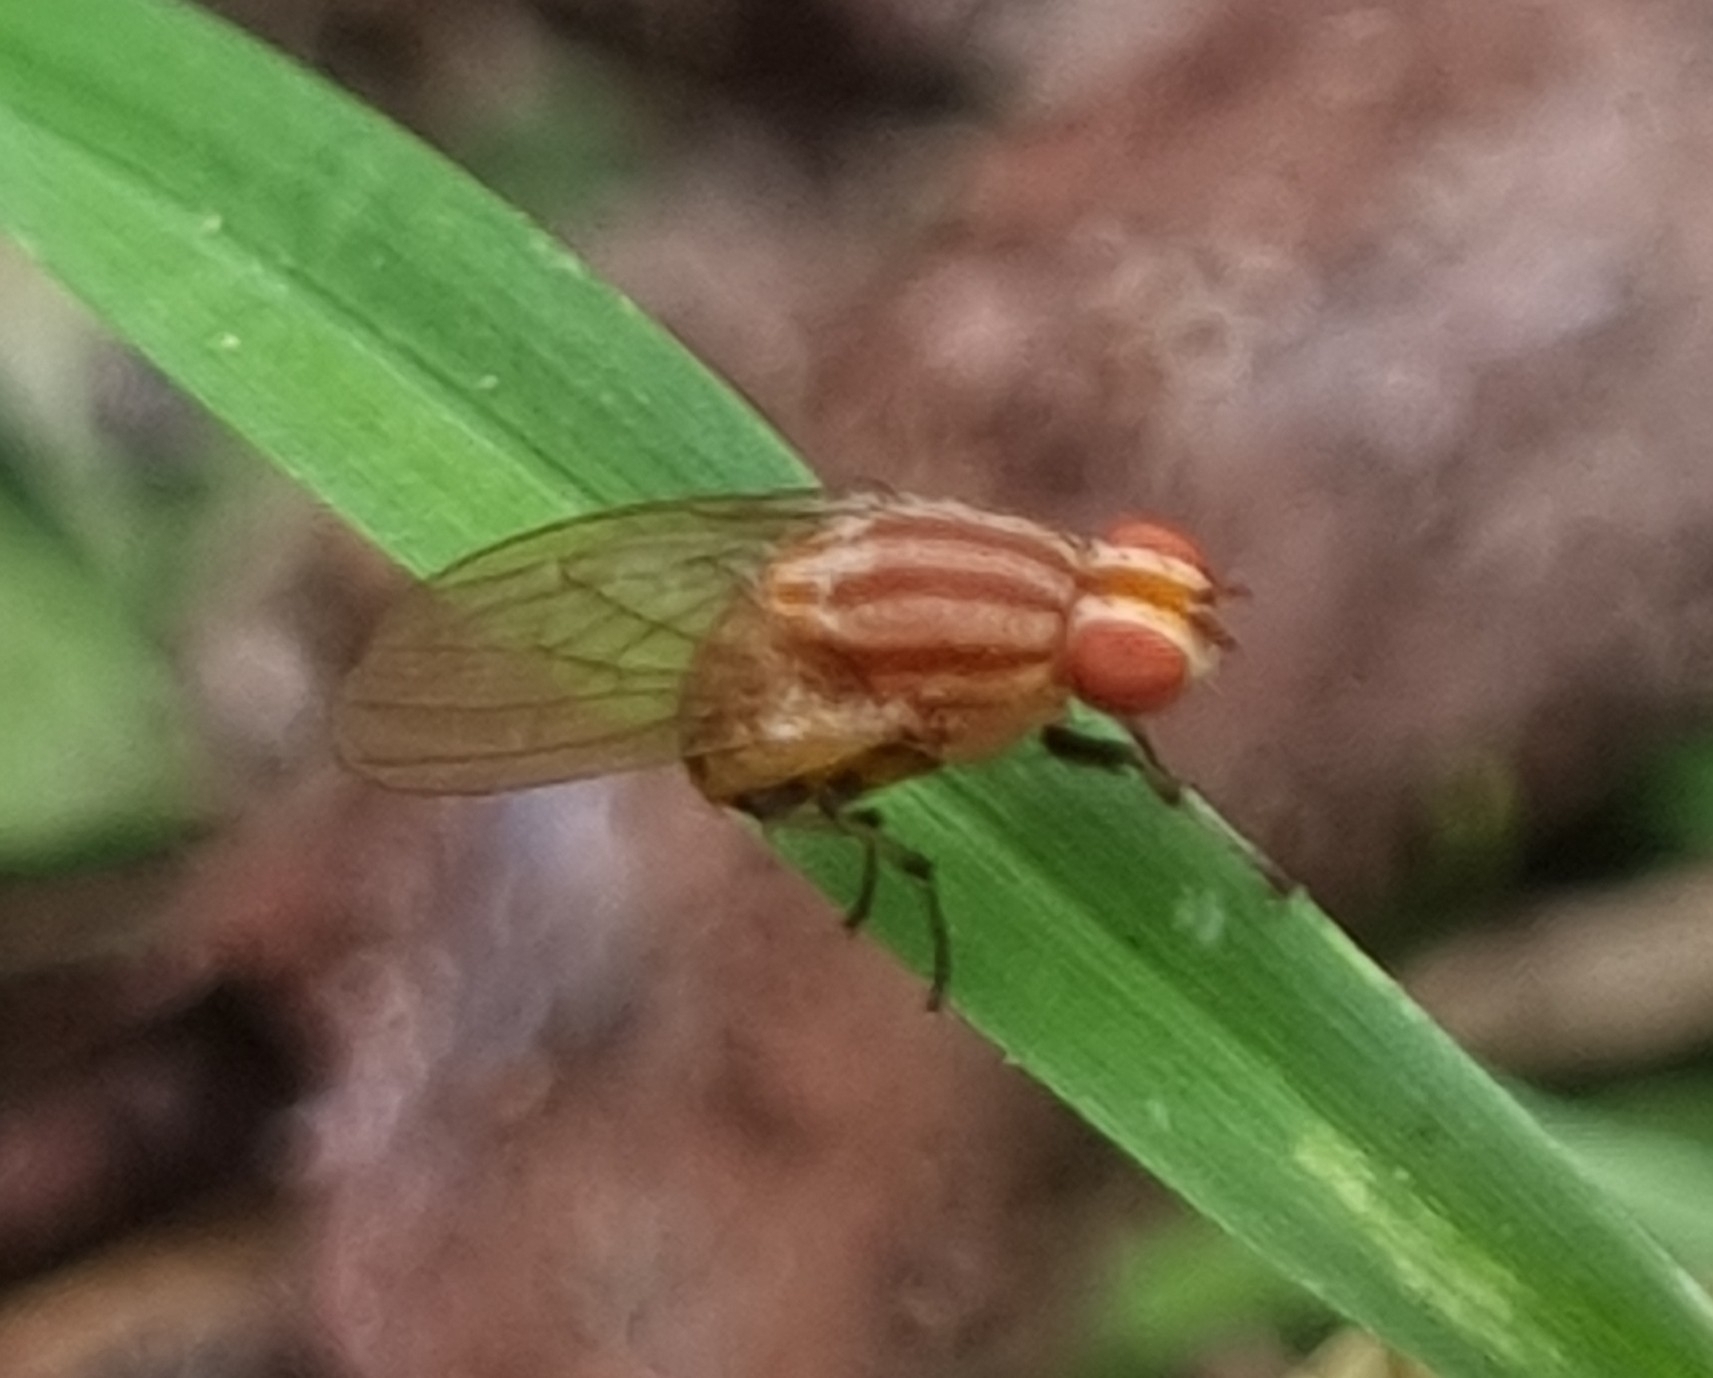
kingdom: Animalia
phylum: Arthropoda
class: Insecta
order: Diptera
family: Lauxaniidae
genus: Sapromyza
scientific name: Sapromyza brunneovittata
